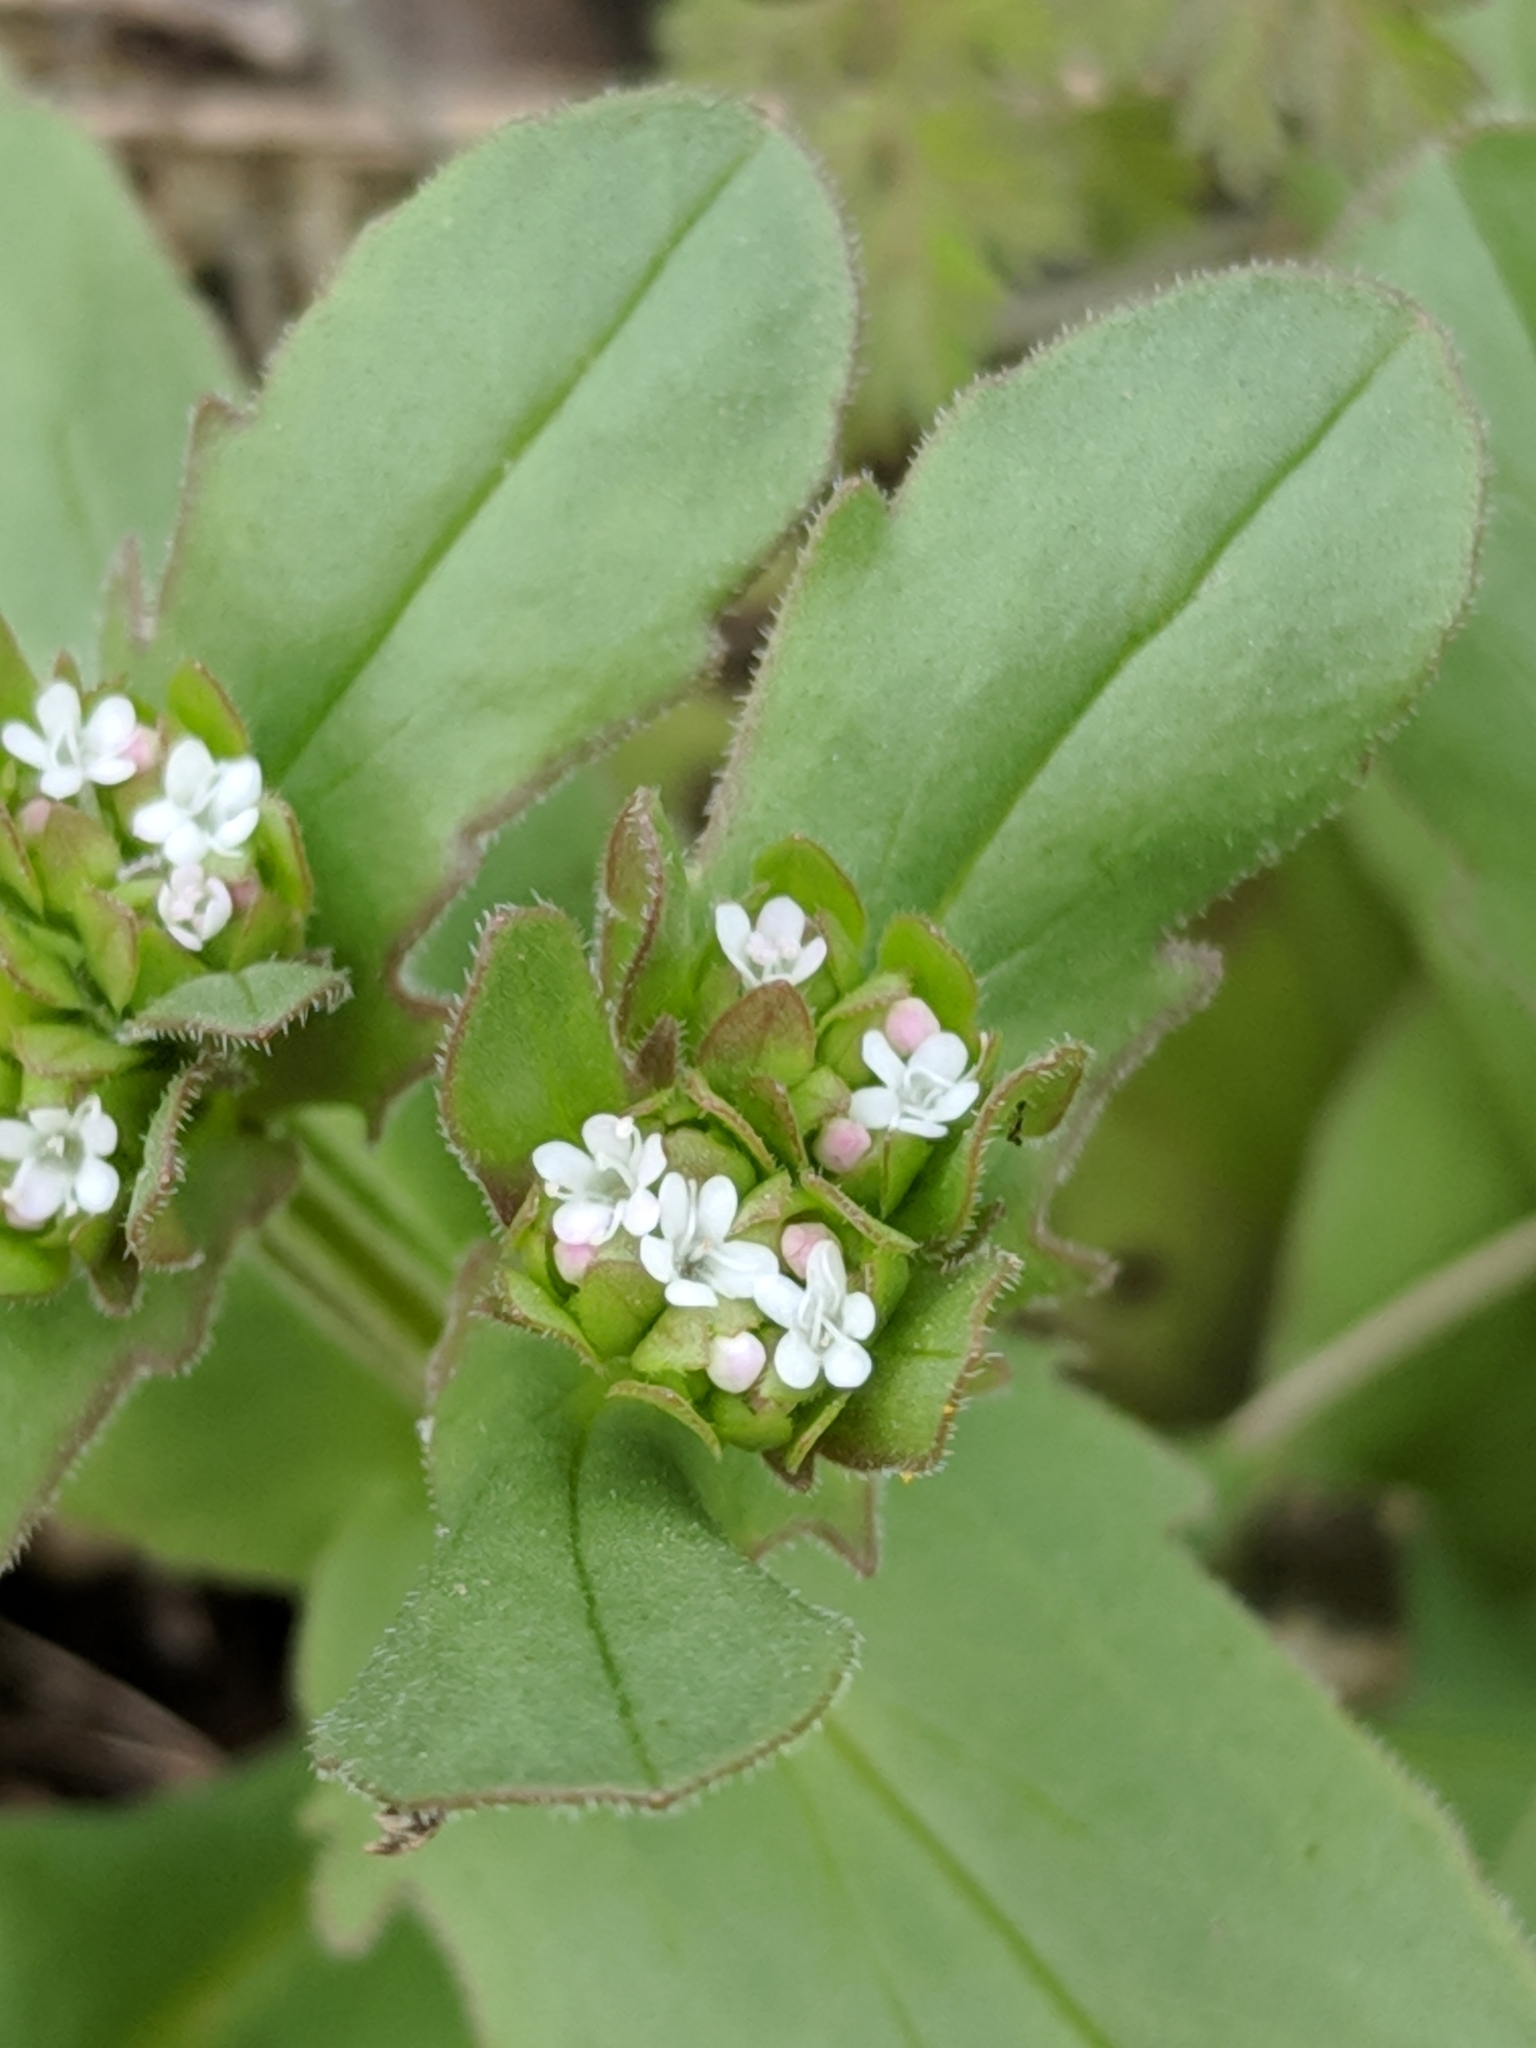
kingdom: Plantae
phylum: Tracheophyta
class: Magnoliopsida
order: Dipsacales
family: Caprifoliaceae
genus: Valerianella
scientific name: Valerianella radiata
